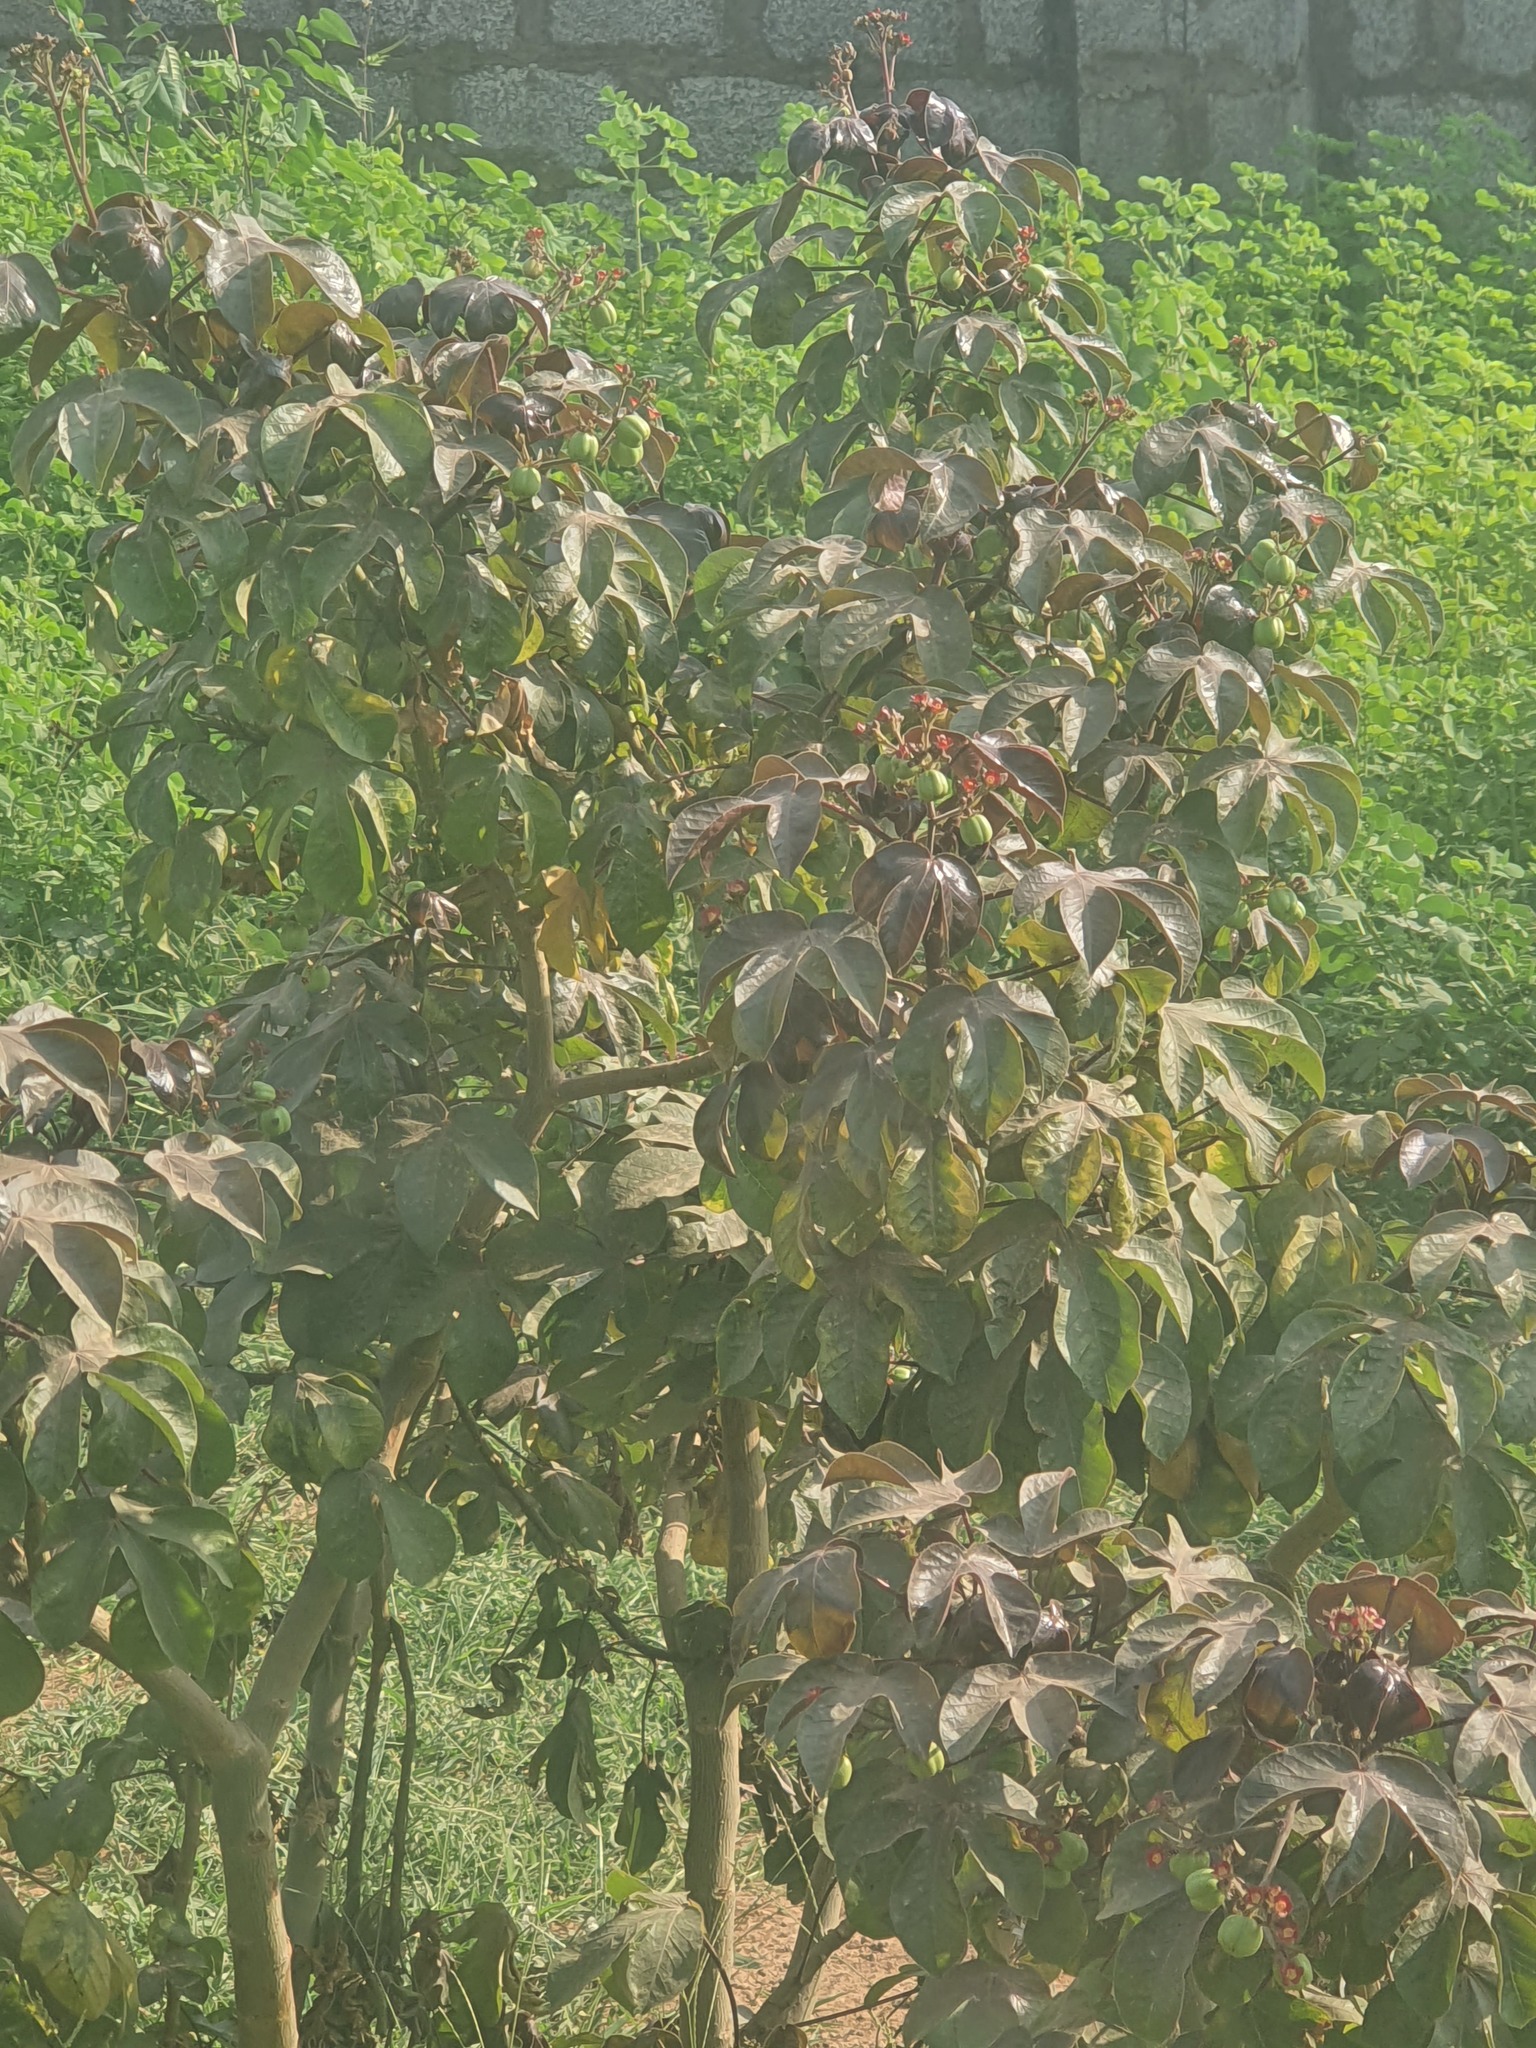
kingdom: Plantae
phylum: Tracheophyta
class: Magnoliopsida
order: Malpighiales
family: Euphorbiaceae
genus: Jatropha
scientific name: Jatropha gossypiifolia
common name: Bellyache bush
